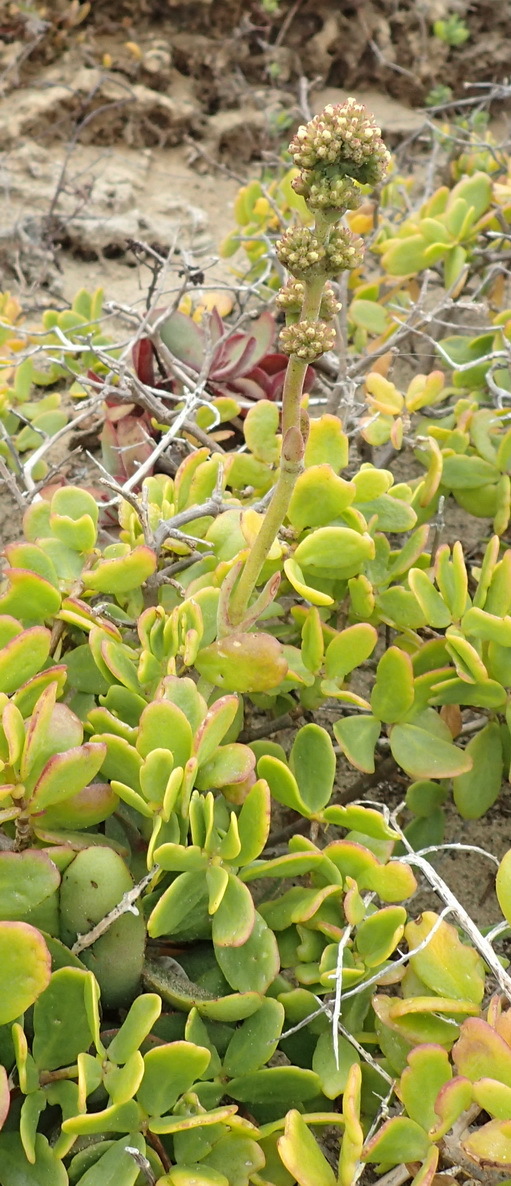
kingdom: Plantae
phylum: Tracheophyta
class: Magnoliopsida
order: Saxifragales
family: Crassulaceae
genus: Crassula
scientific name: Crassula pubescens
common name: Jersey pigmyweed
